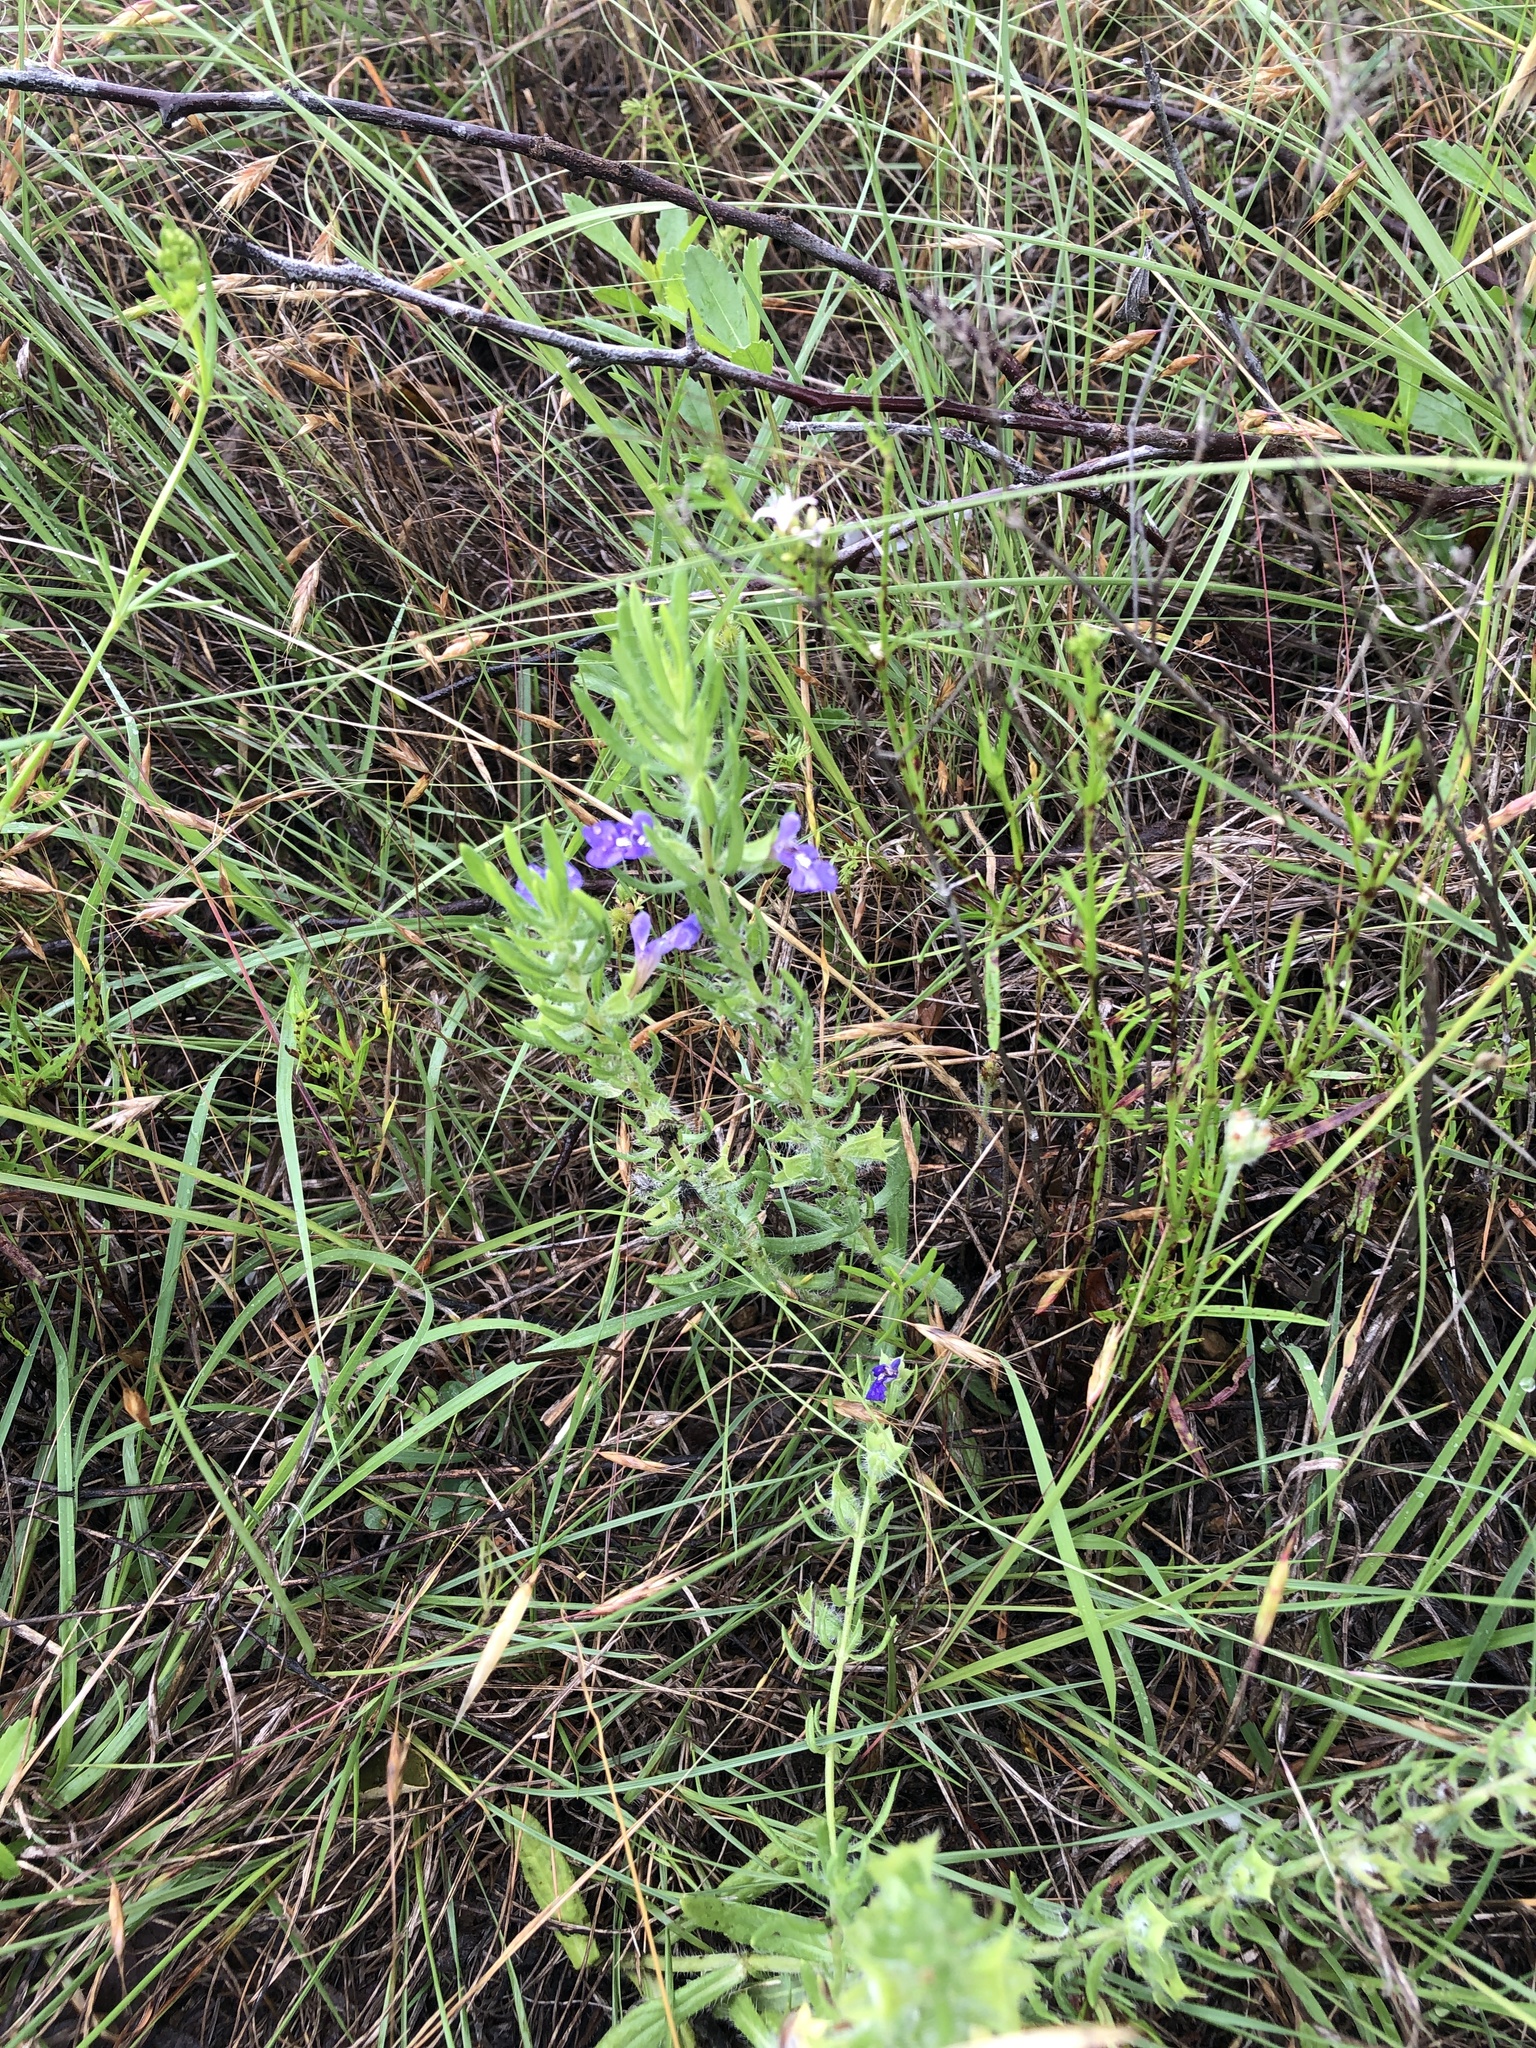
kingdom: Plantae
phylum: Tracheophyta
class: Magnoliopsida
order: Lamiales
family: Lamiaceae
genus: Salvia
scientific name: Salvia texana
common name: Texas sage
